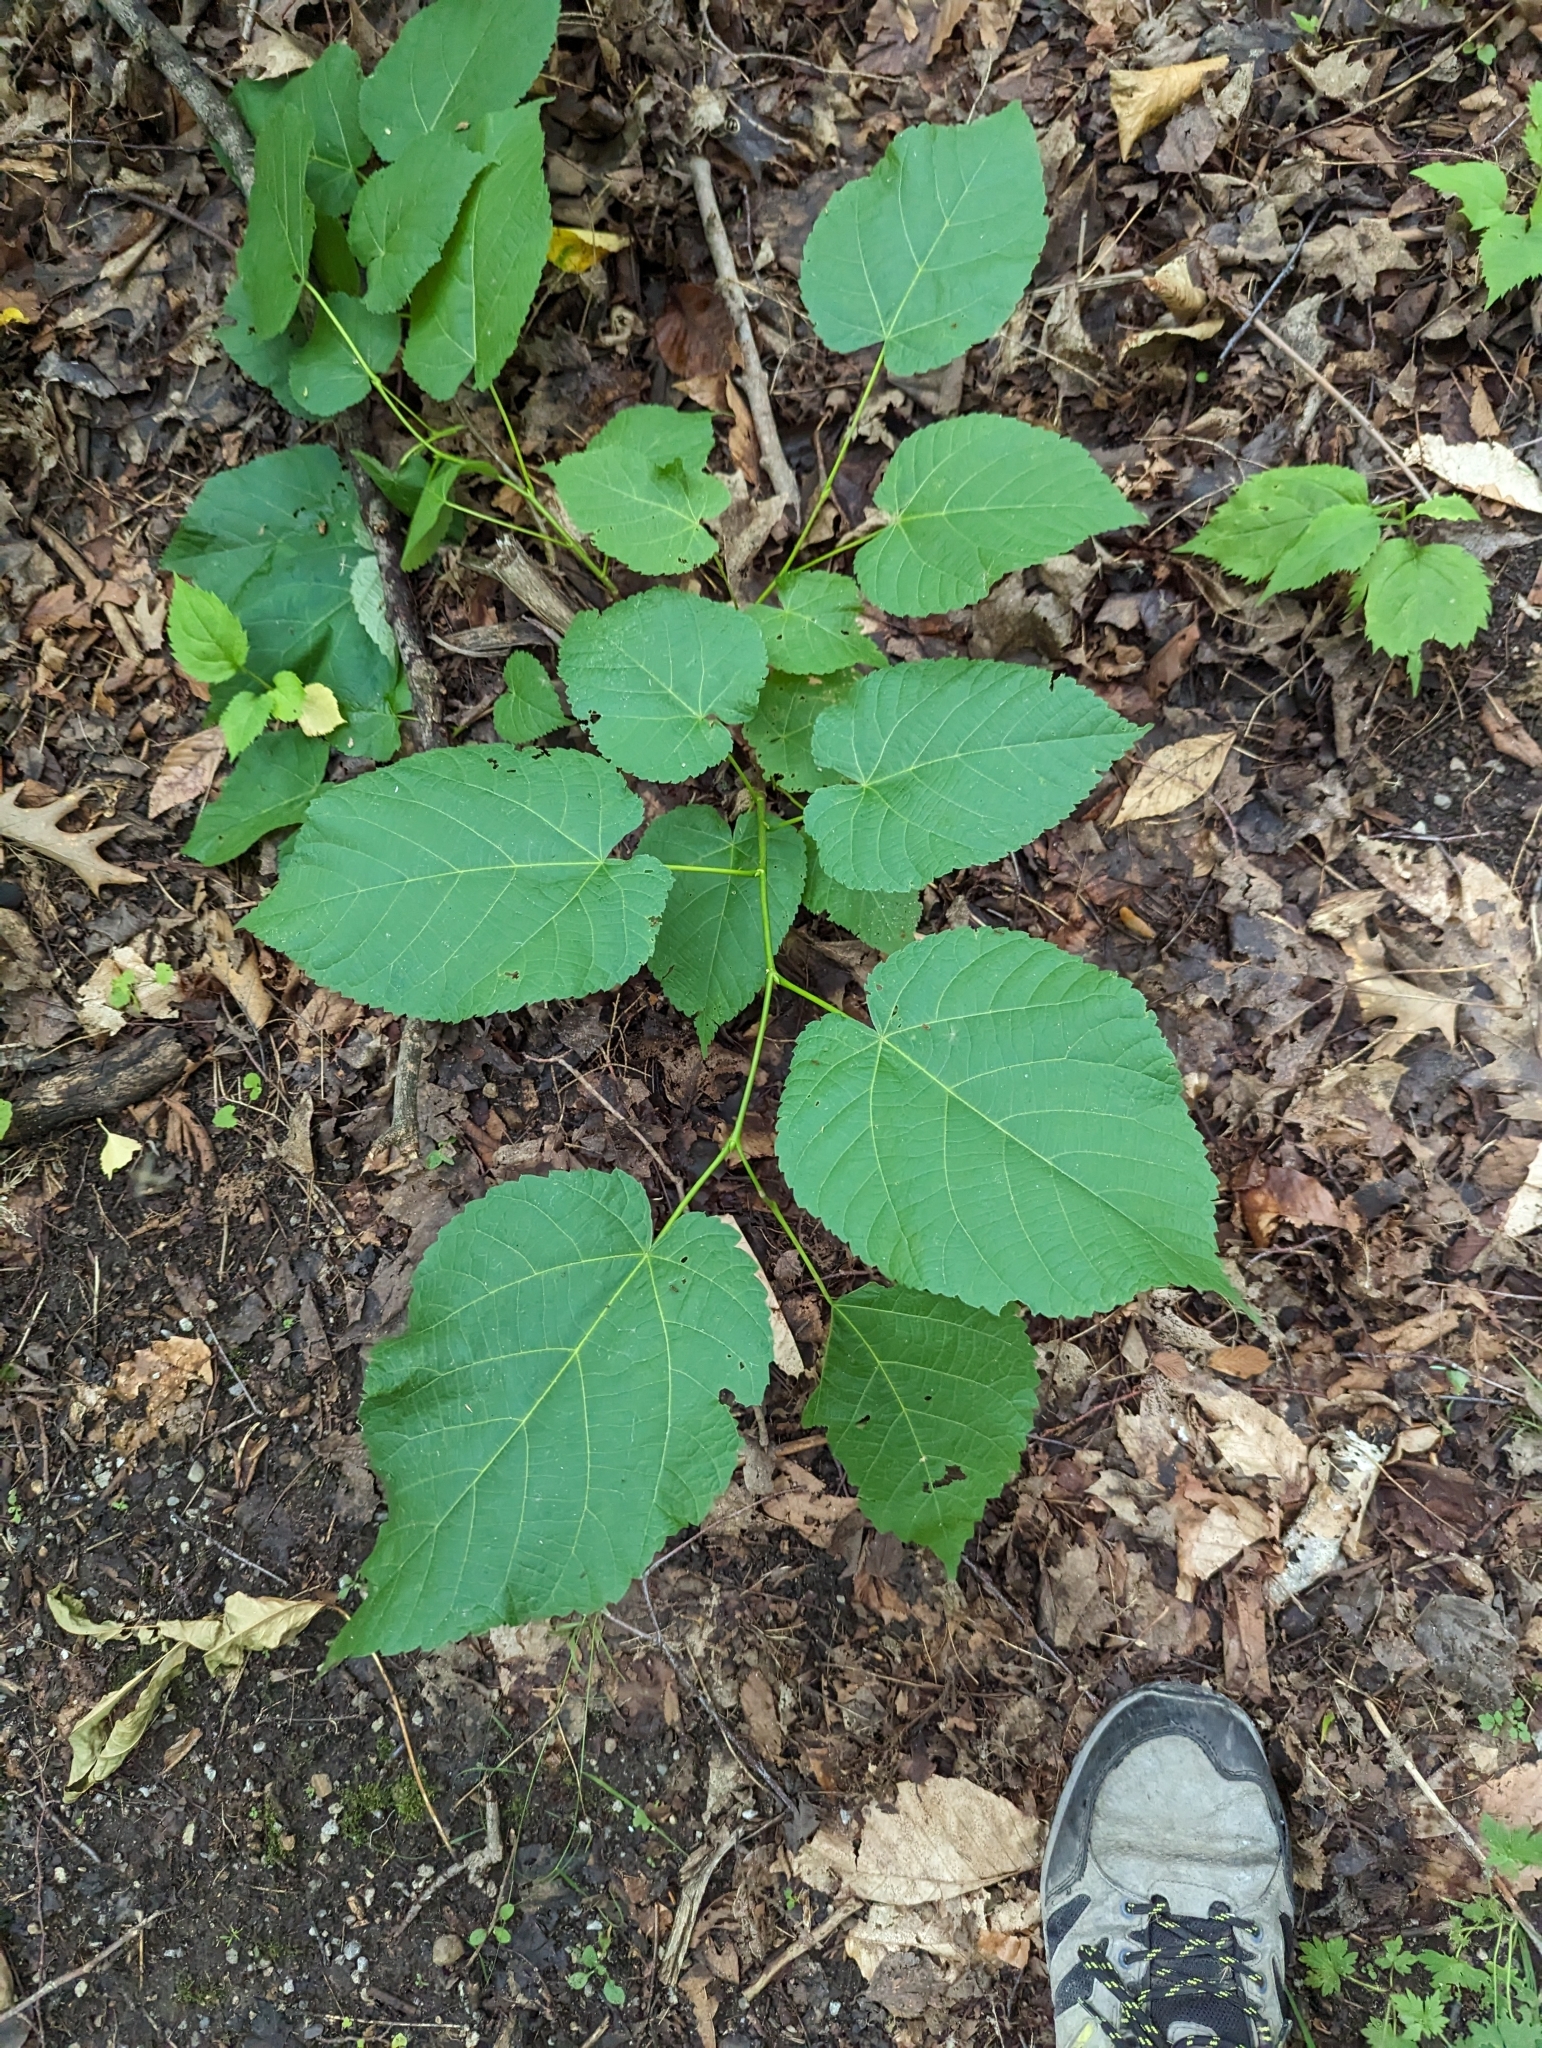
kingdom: Plantae
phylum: Tracheophyta
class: Magnoliopsida
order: Malvales
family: Malvaceae
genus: Tilia
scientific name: Tilia americana
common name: Basswood
